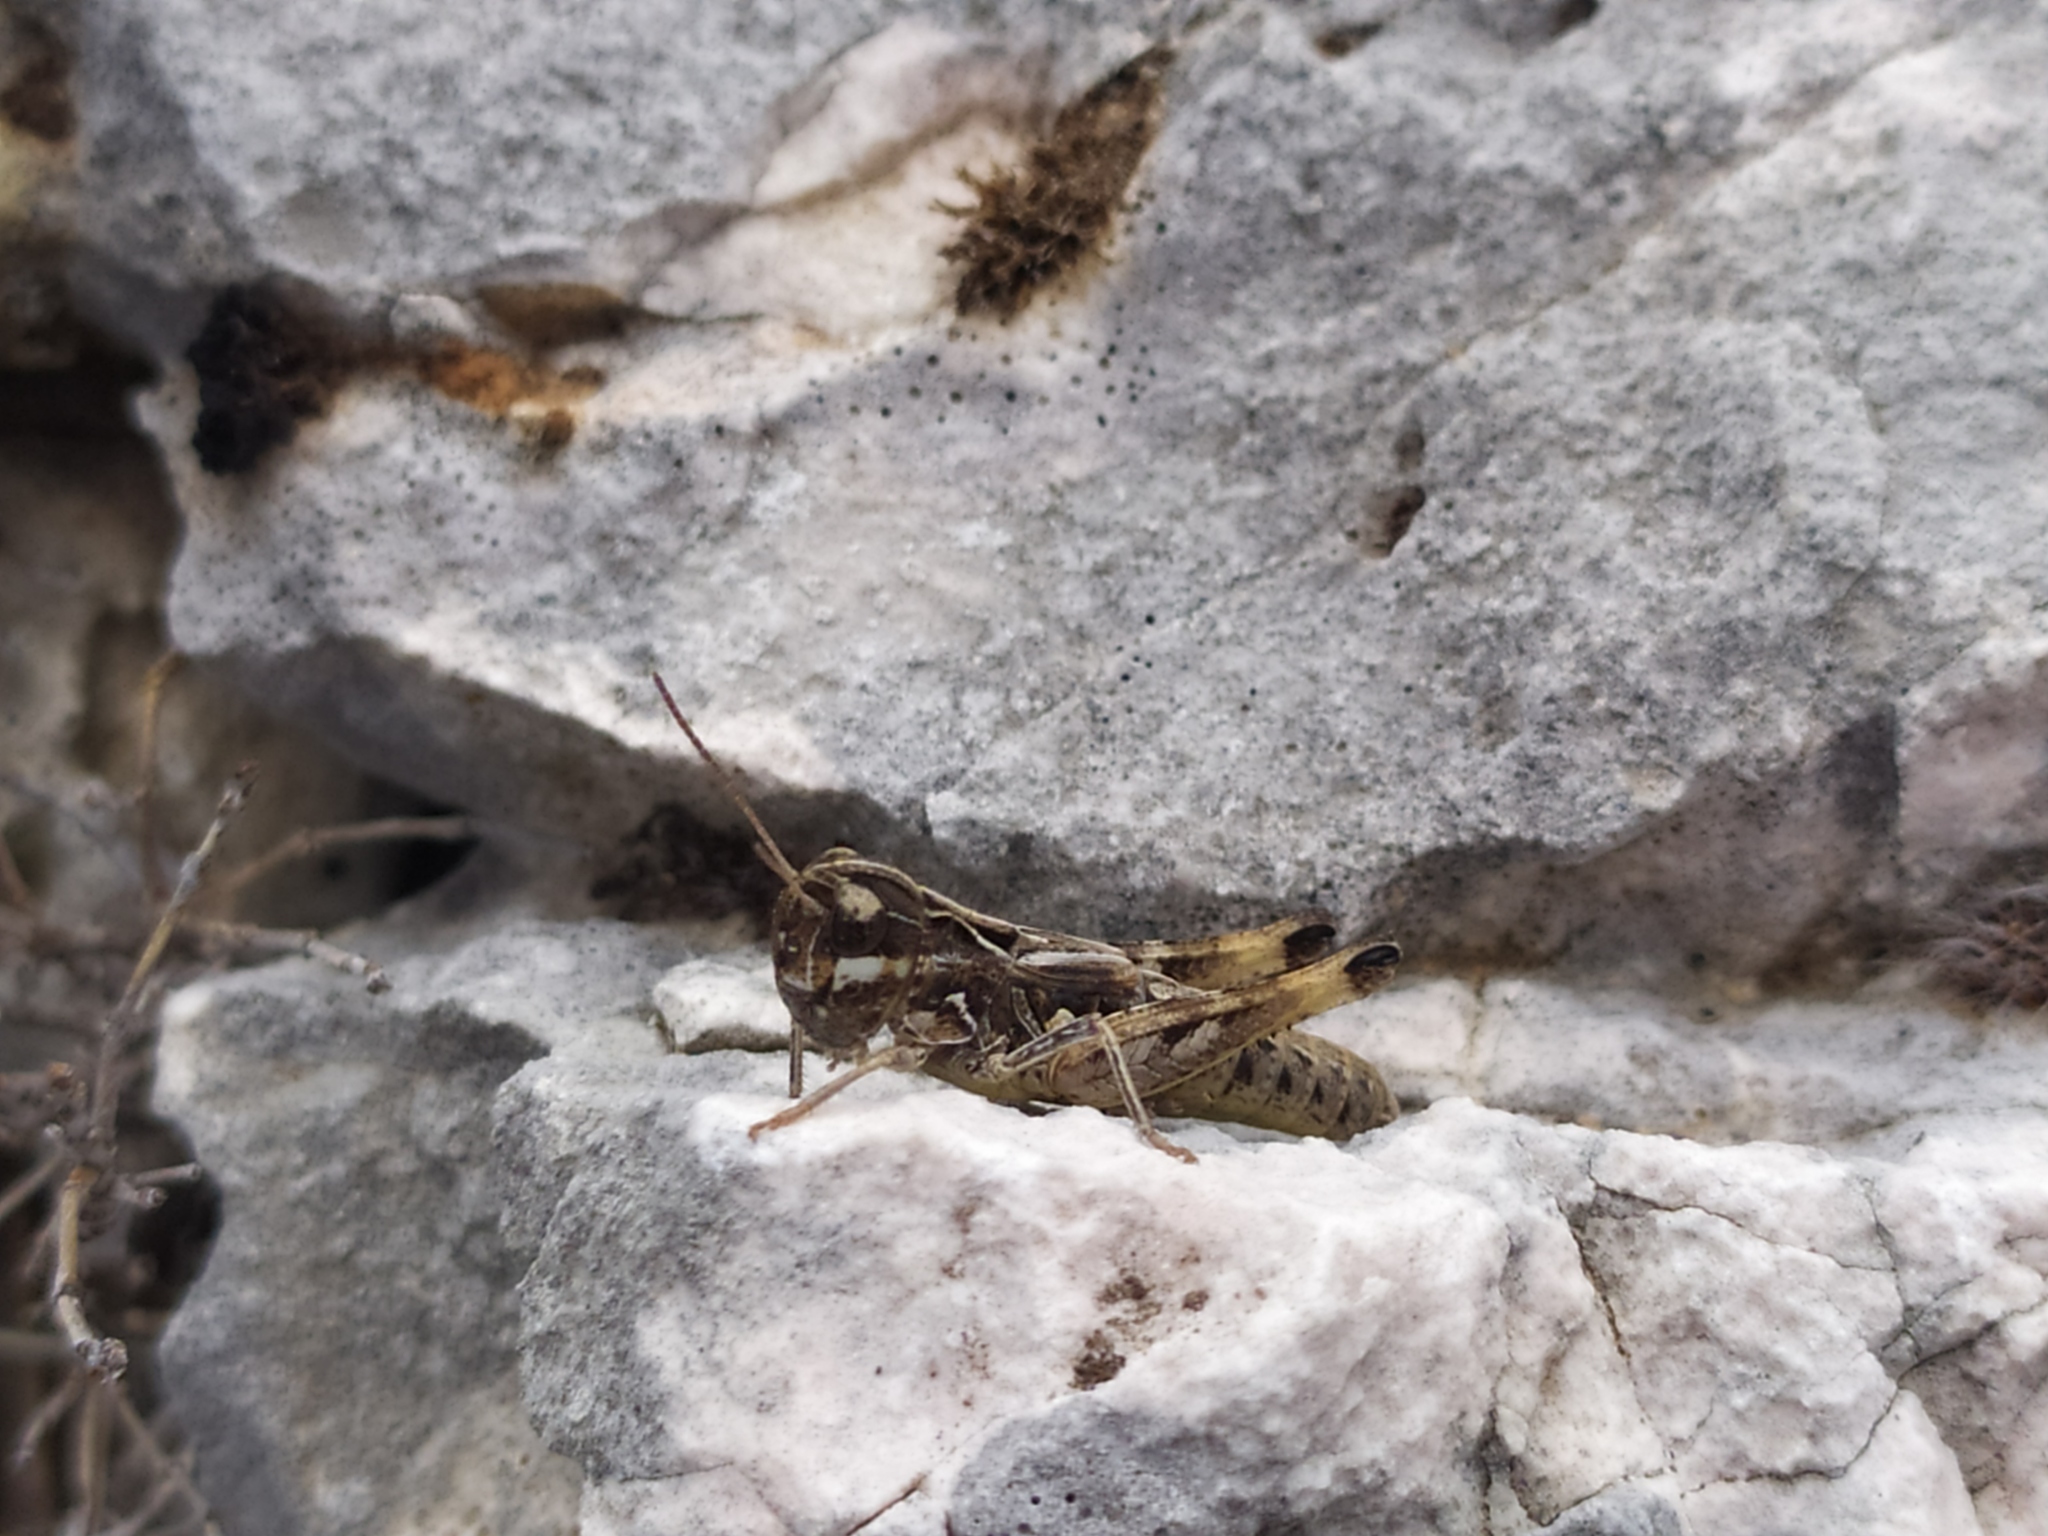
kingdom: Animalia
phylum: Arthropoda
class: Insecta
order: Orthoptera
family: Acrididae
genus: Rammeihippus
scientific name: Rammeihippus dinaricus
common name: Dinarian grasshopper
